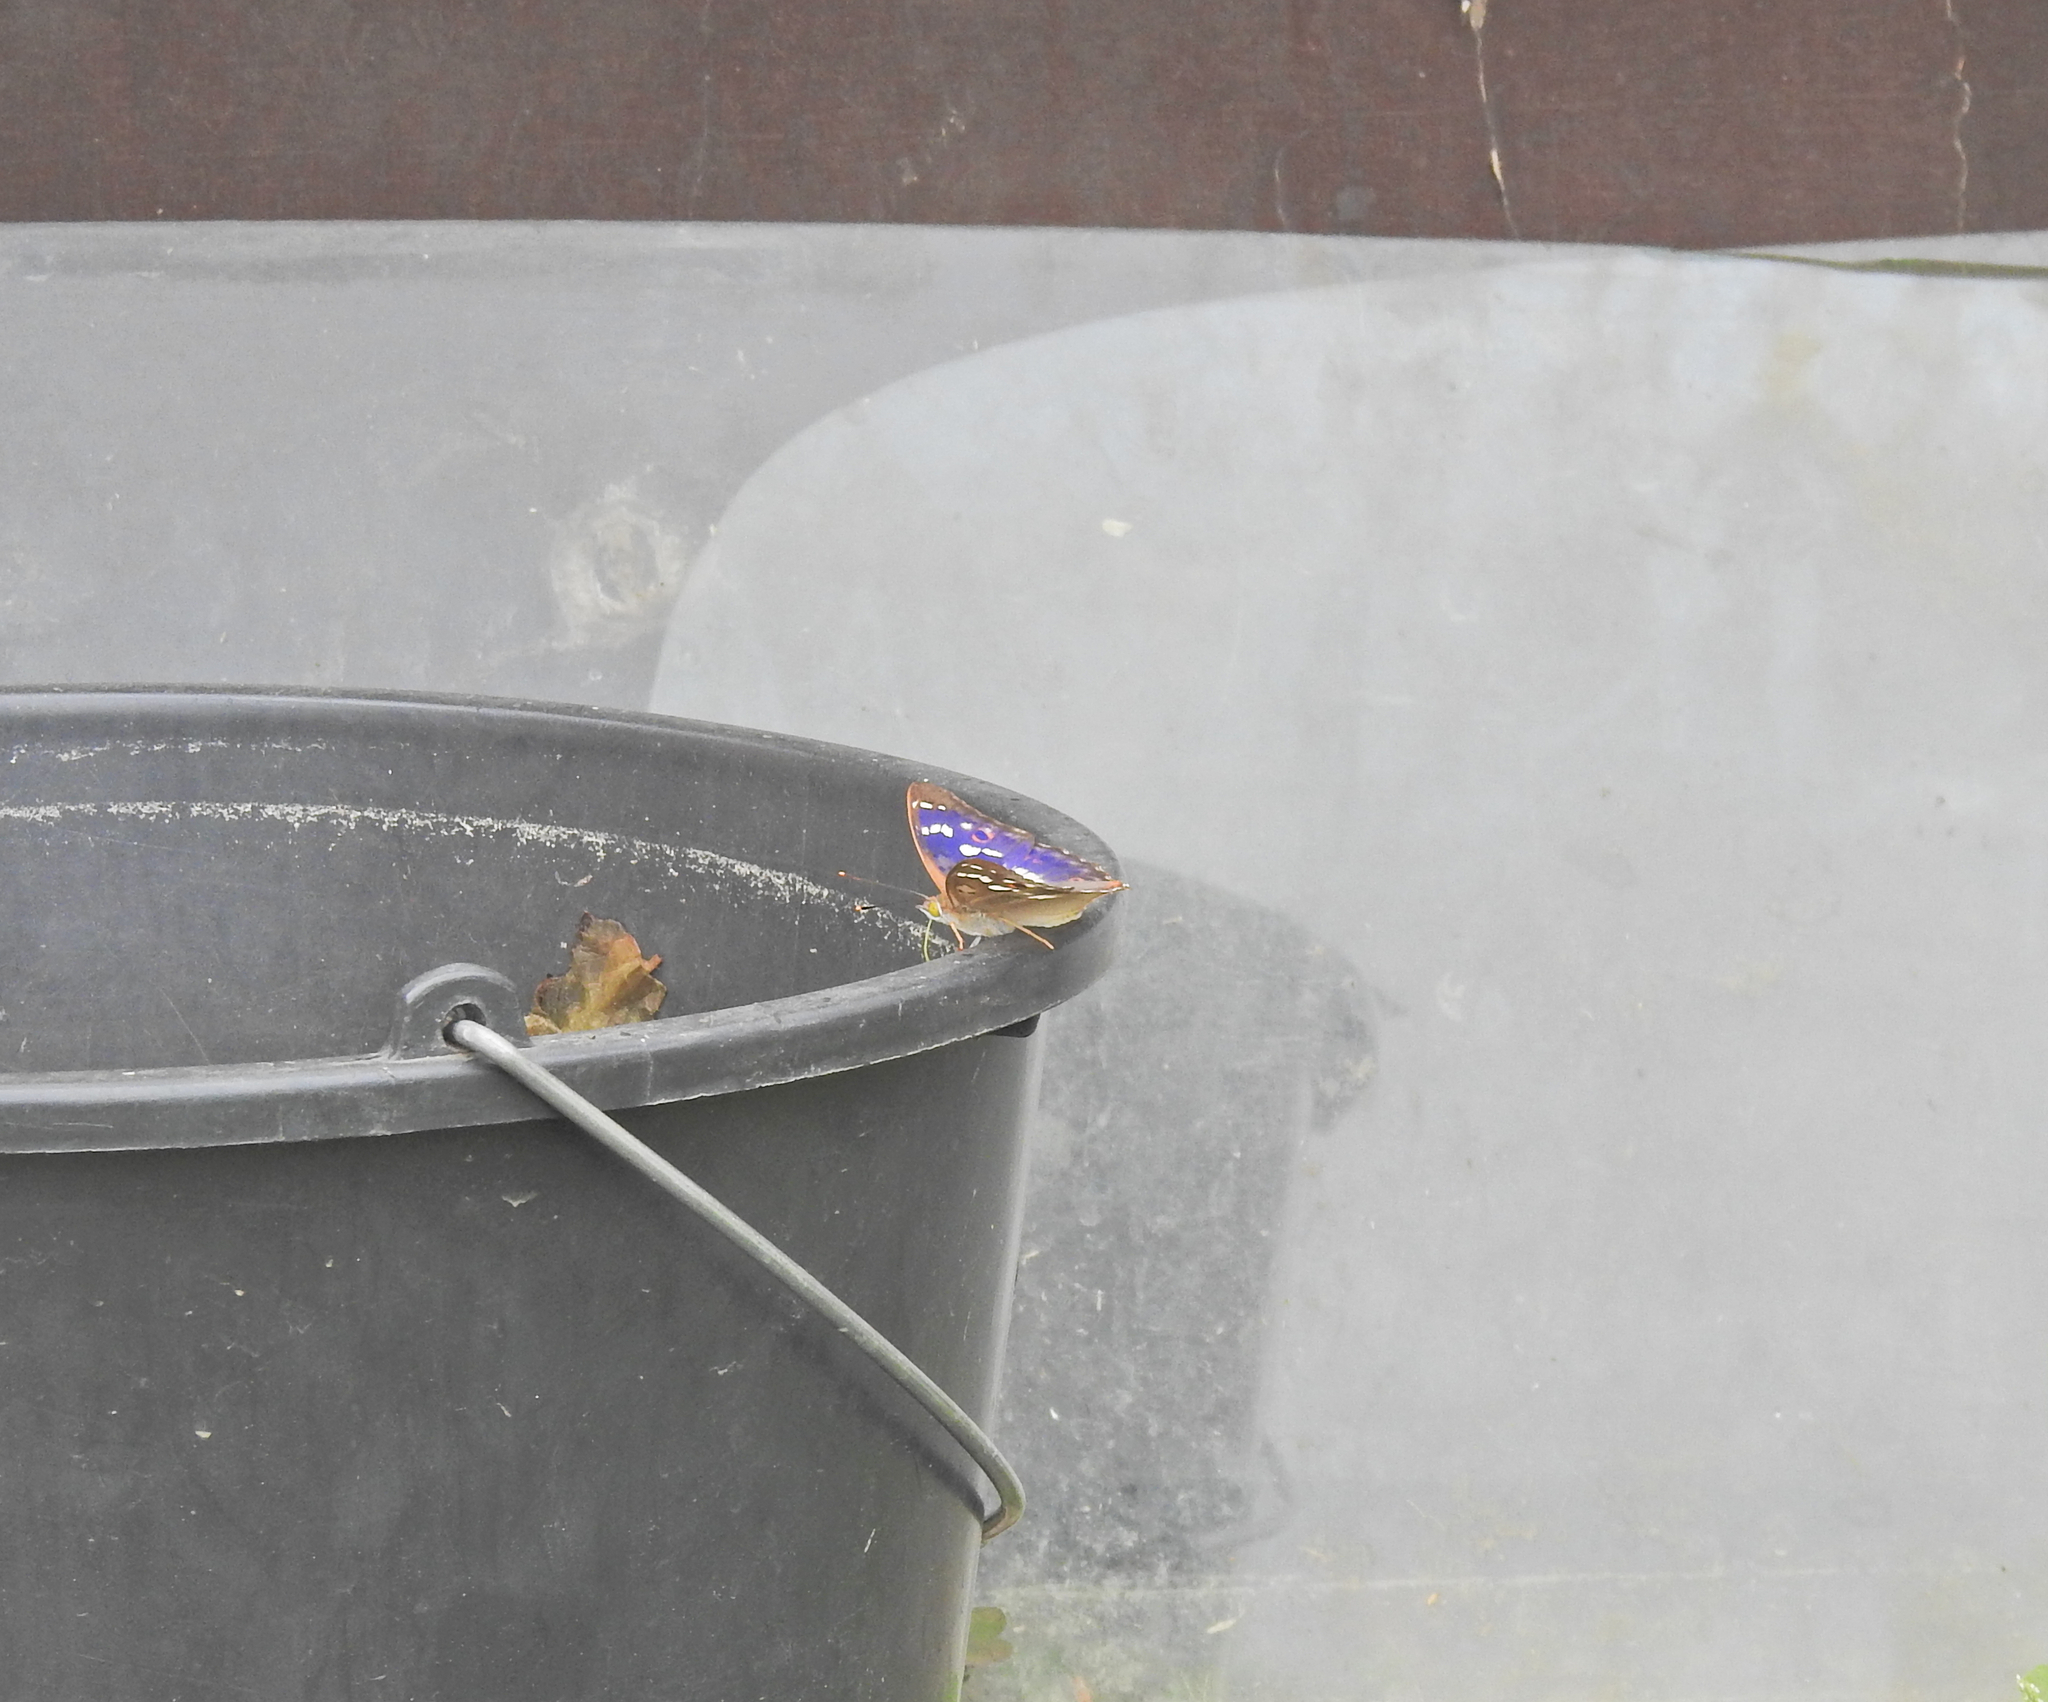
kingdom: Animalia
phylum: Arthropoda
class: Insecta
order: Lepidoptera
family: Nymphalidae
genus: Apatura
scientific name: Apatura ilia
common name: Lesser purple emperor
